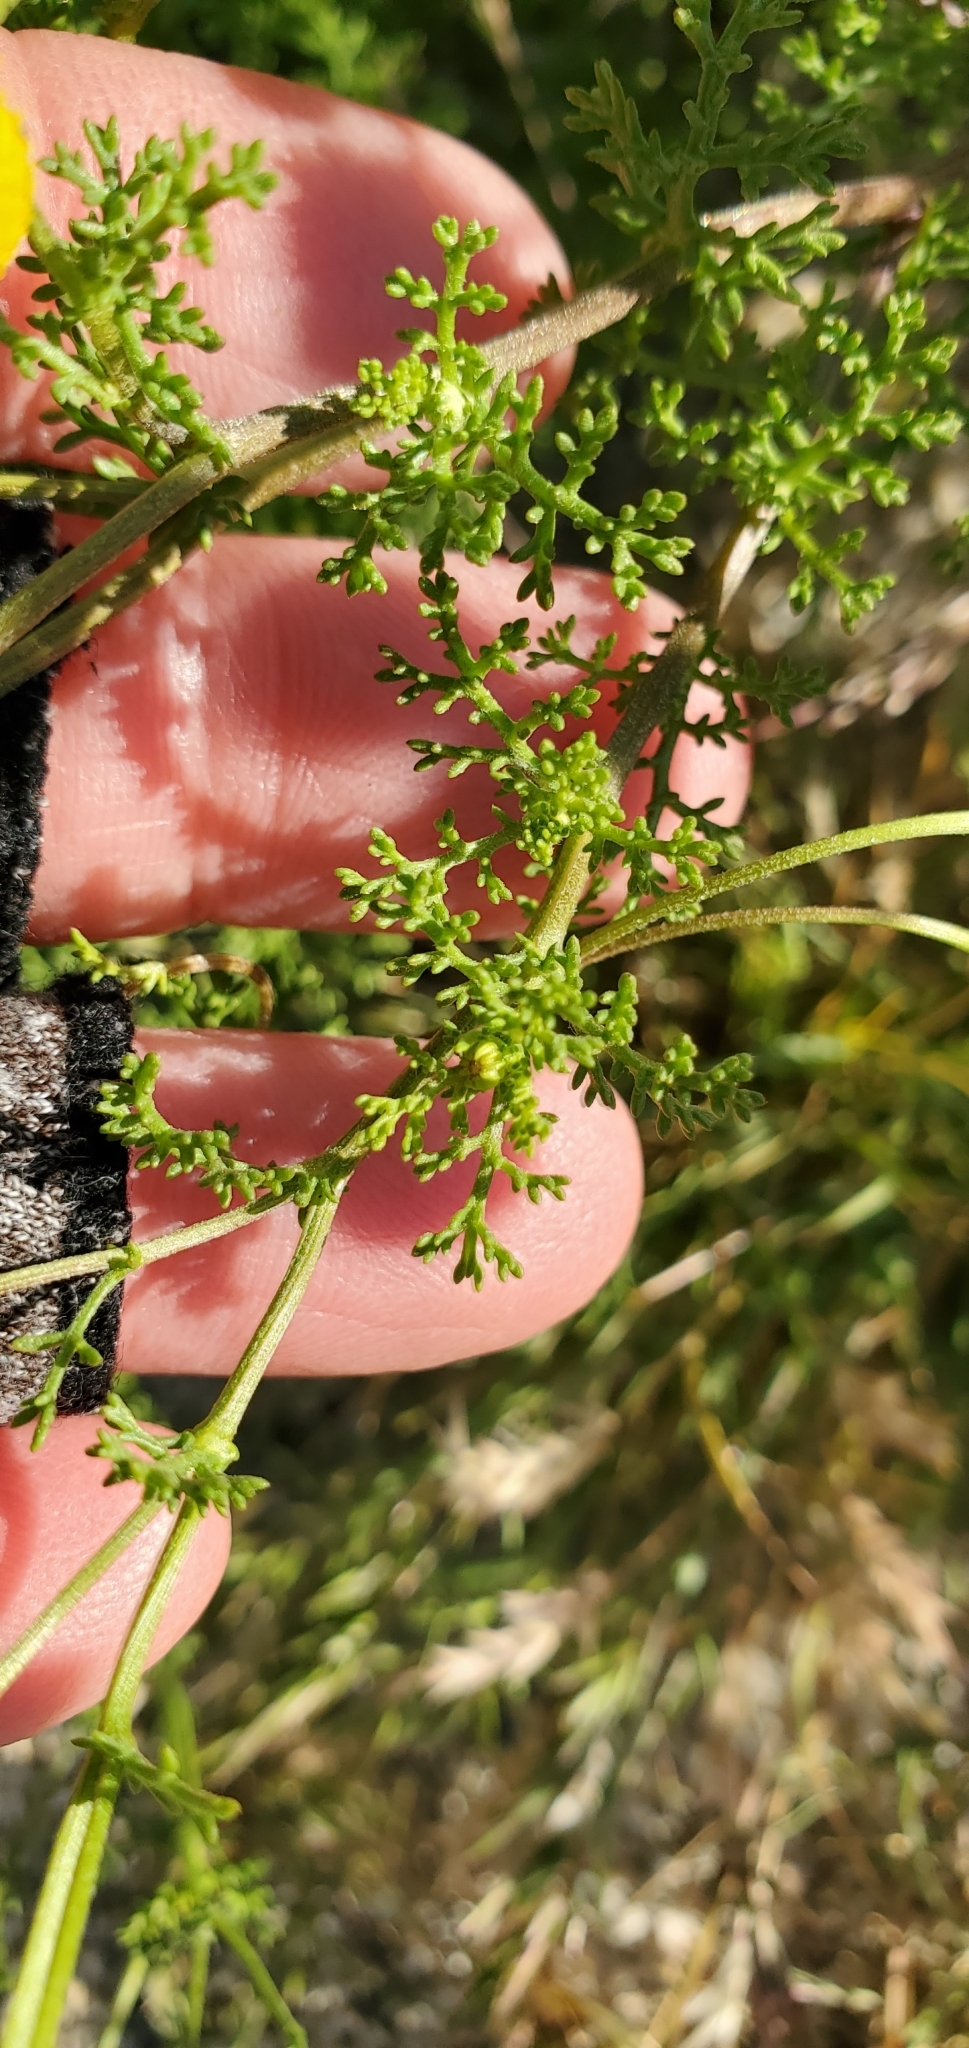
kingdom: Plantae
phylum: Tracheophyta
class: Magnoliopsida
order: Asterales
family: Asteraceae
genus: Oncosiphon
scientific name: Oncosiphon pilulifer
